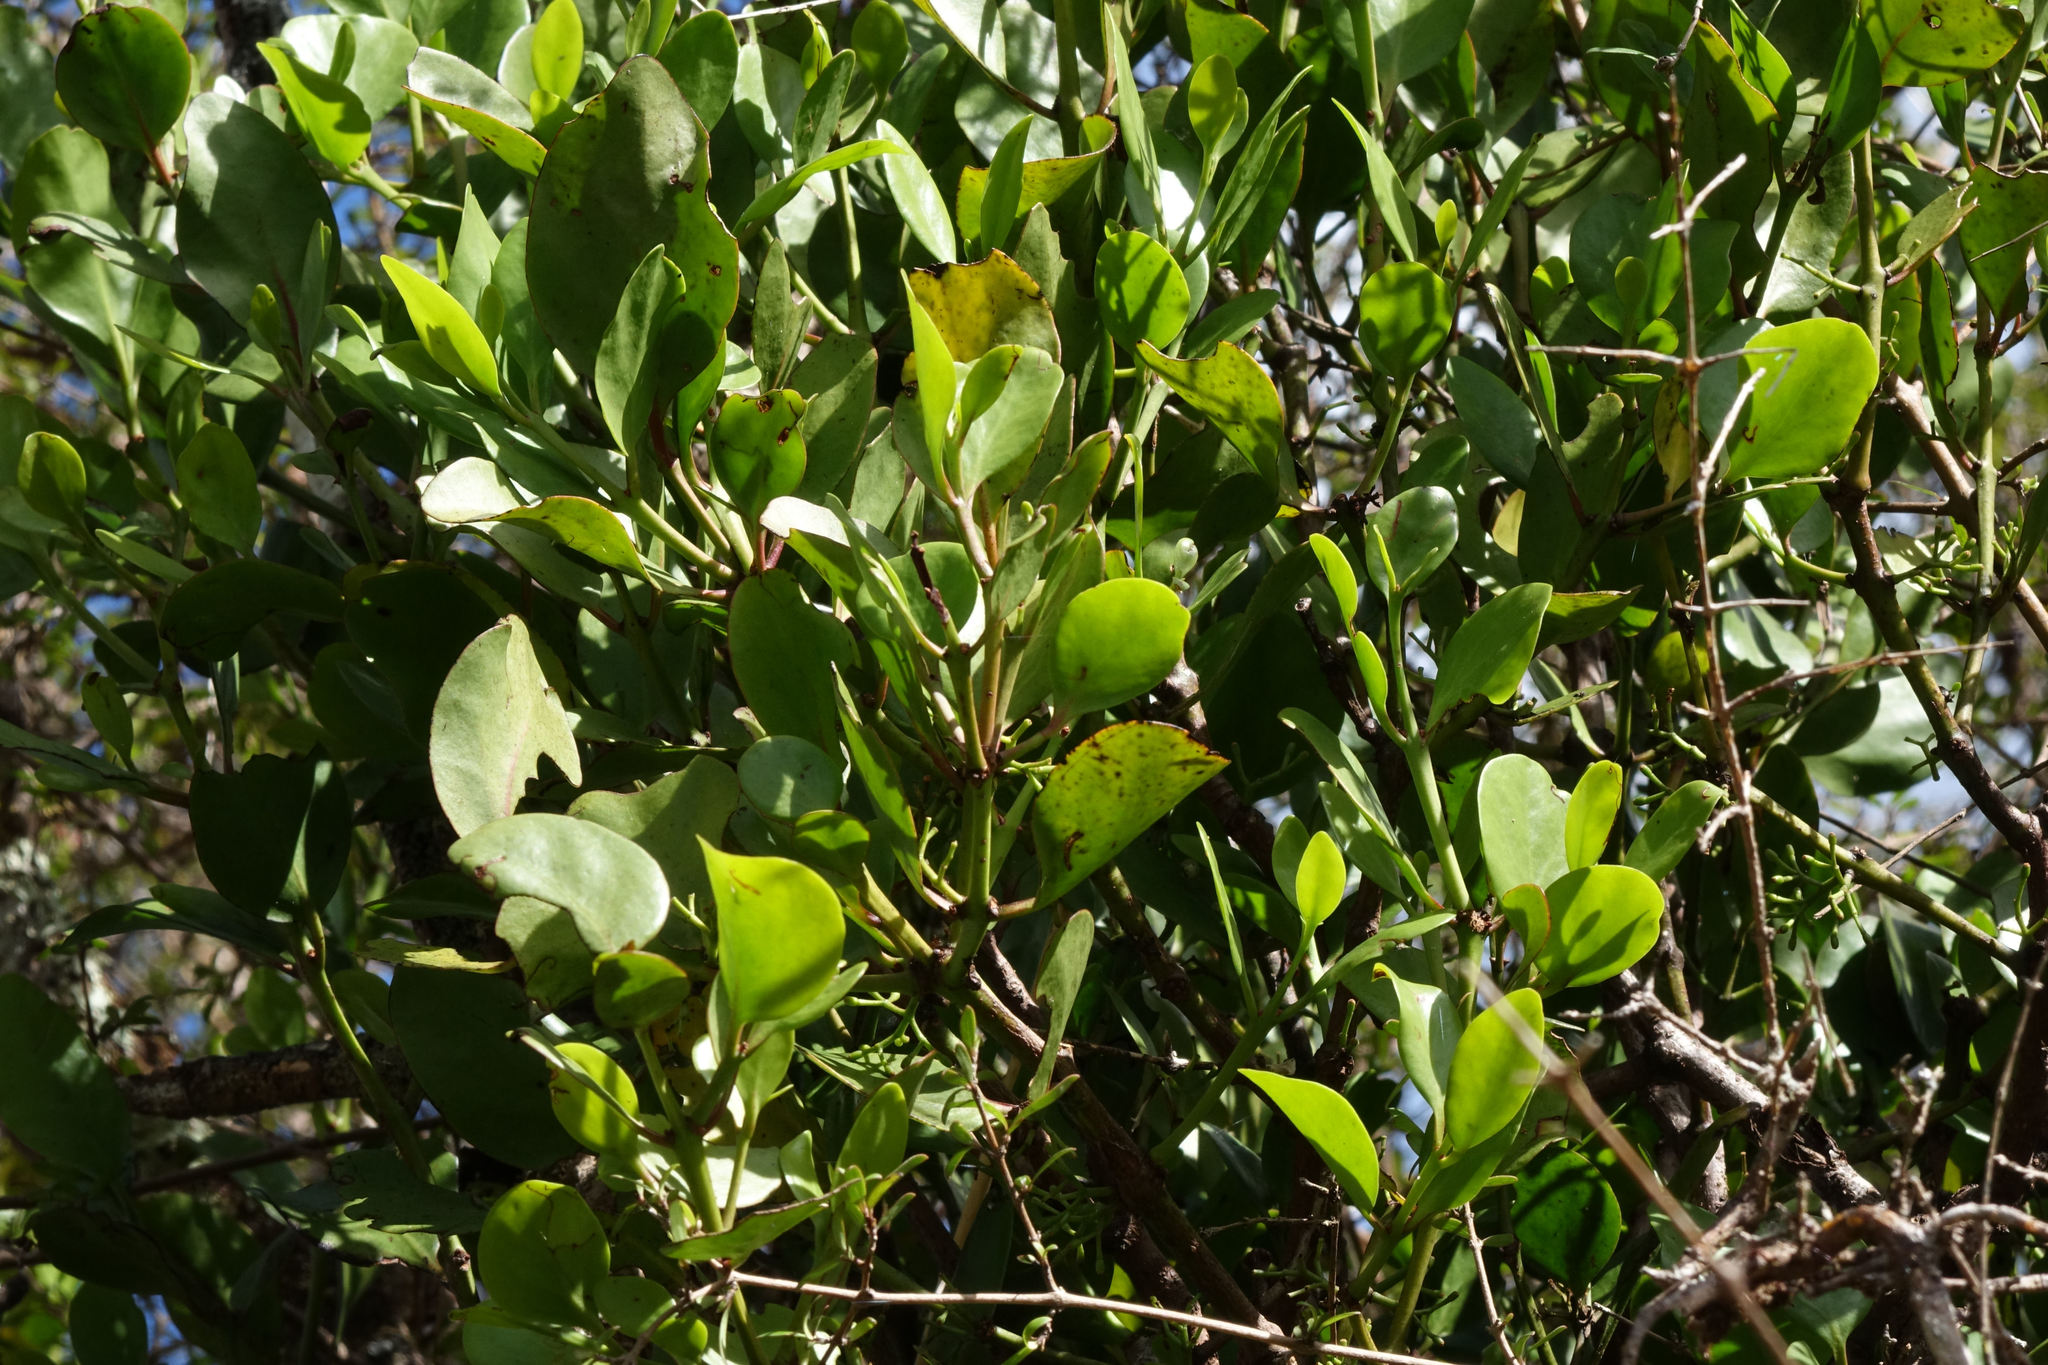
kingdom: Plantae
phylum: Tracheophyta
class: Magnoliopsida
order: Santalales
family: Loranthaceae
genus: Ileostylus
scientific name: Ileostylus micranthus
